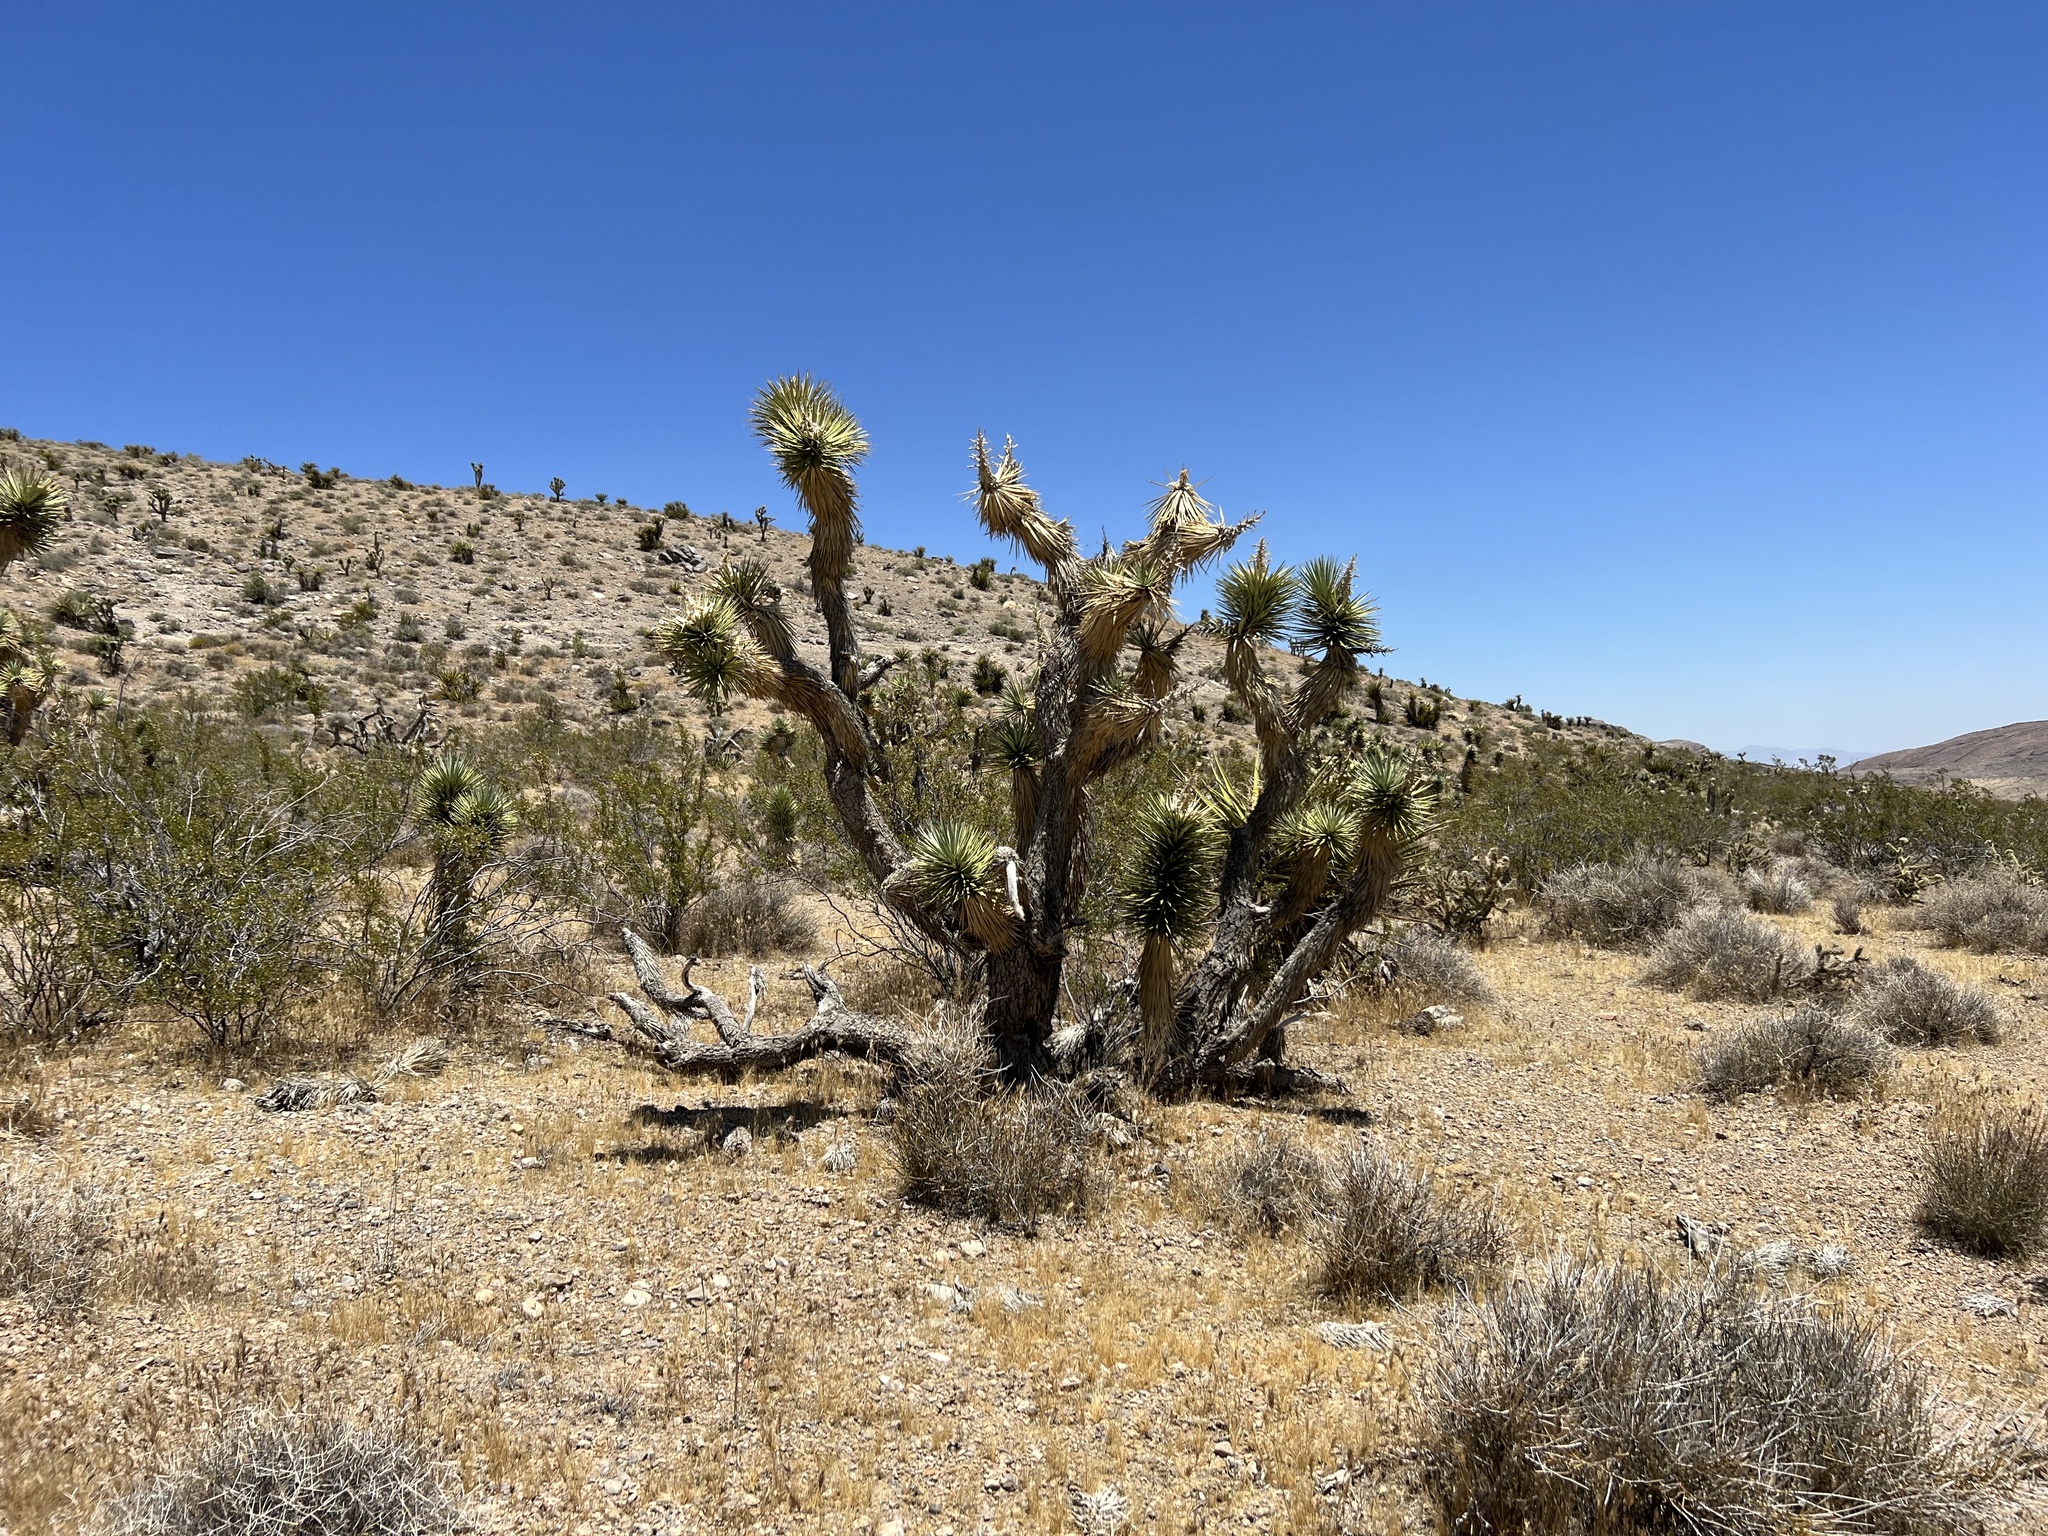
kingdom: Plantae
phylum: Tracheophyta
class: Liliopsida
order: Asparagales
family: Asparagaceae
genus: Yucca
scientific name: Yucca brevifolia
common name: Joshua tree
